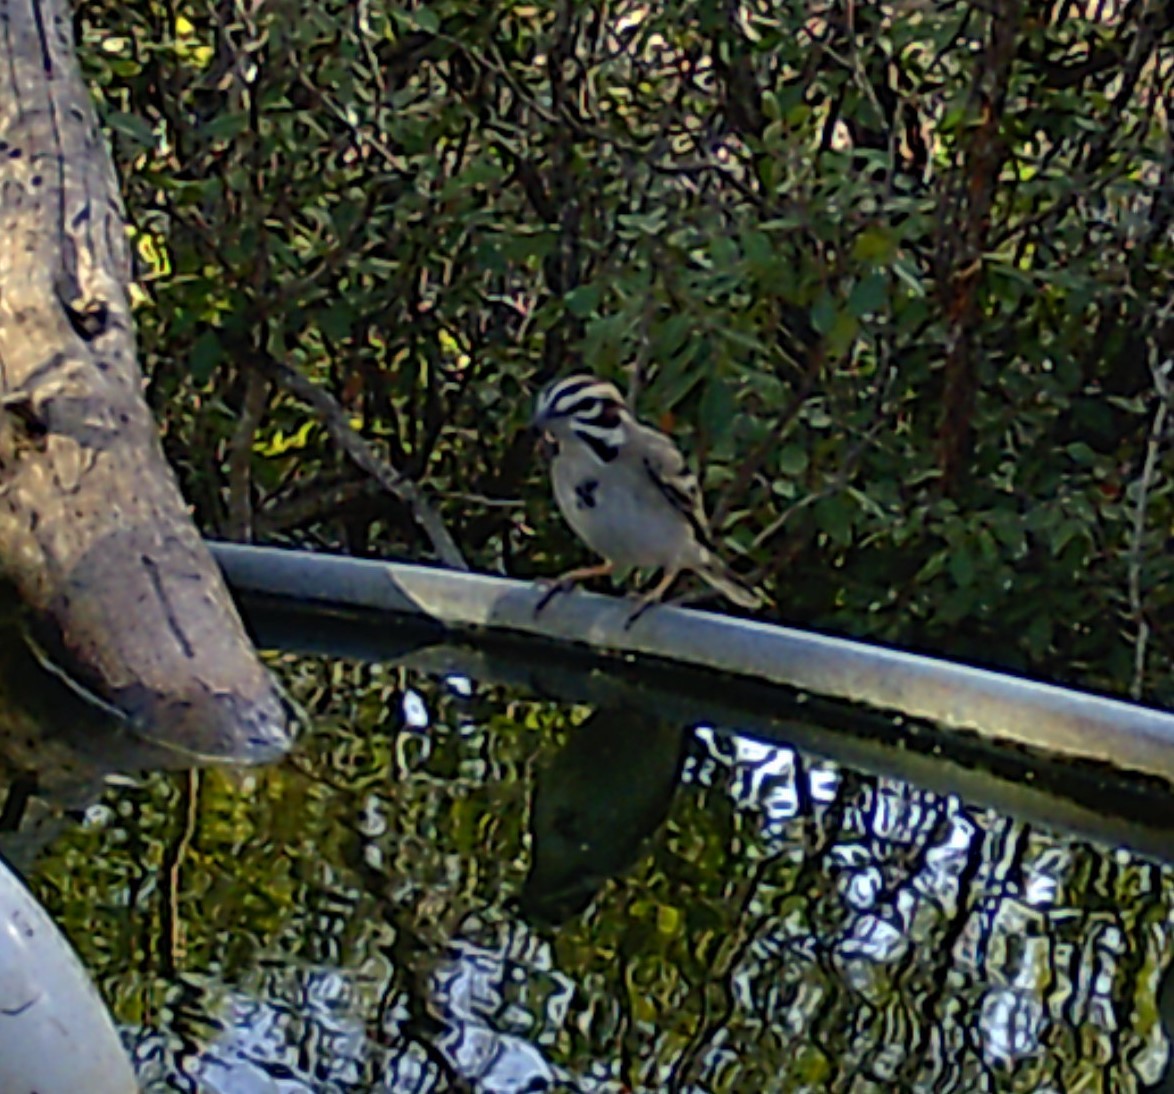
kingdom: Animalia
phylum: Chordata
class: Aves
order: Passeriformes
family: Passerellidae
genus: Chondestes
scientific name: Chondestes grammacus
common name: Lark sparrow
